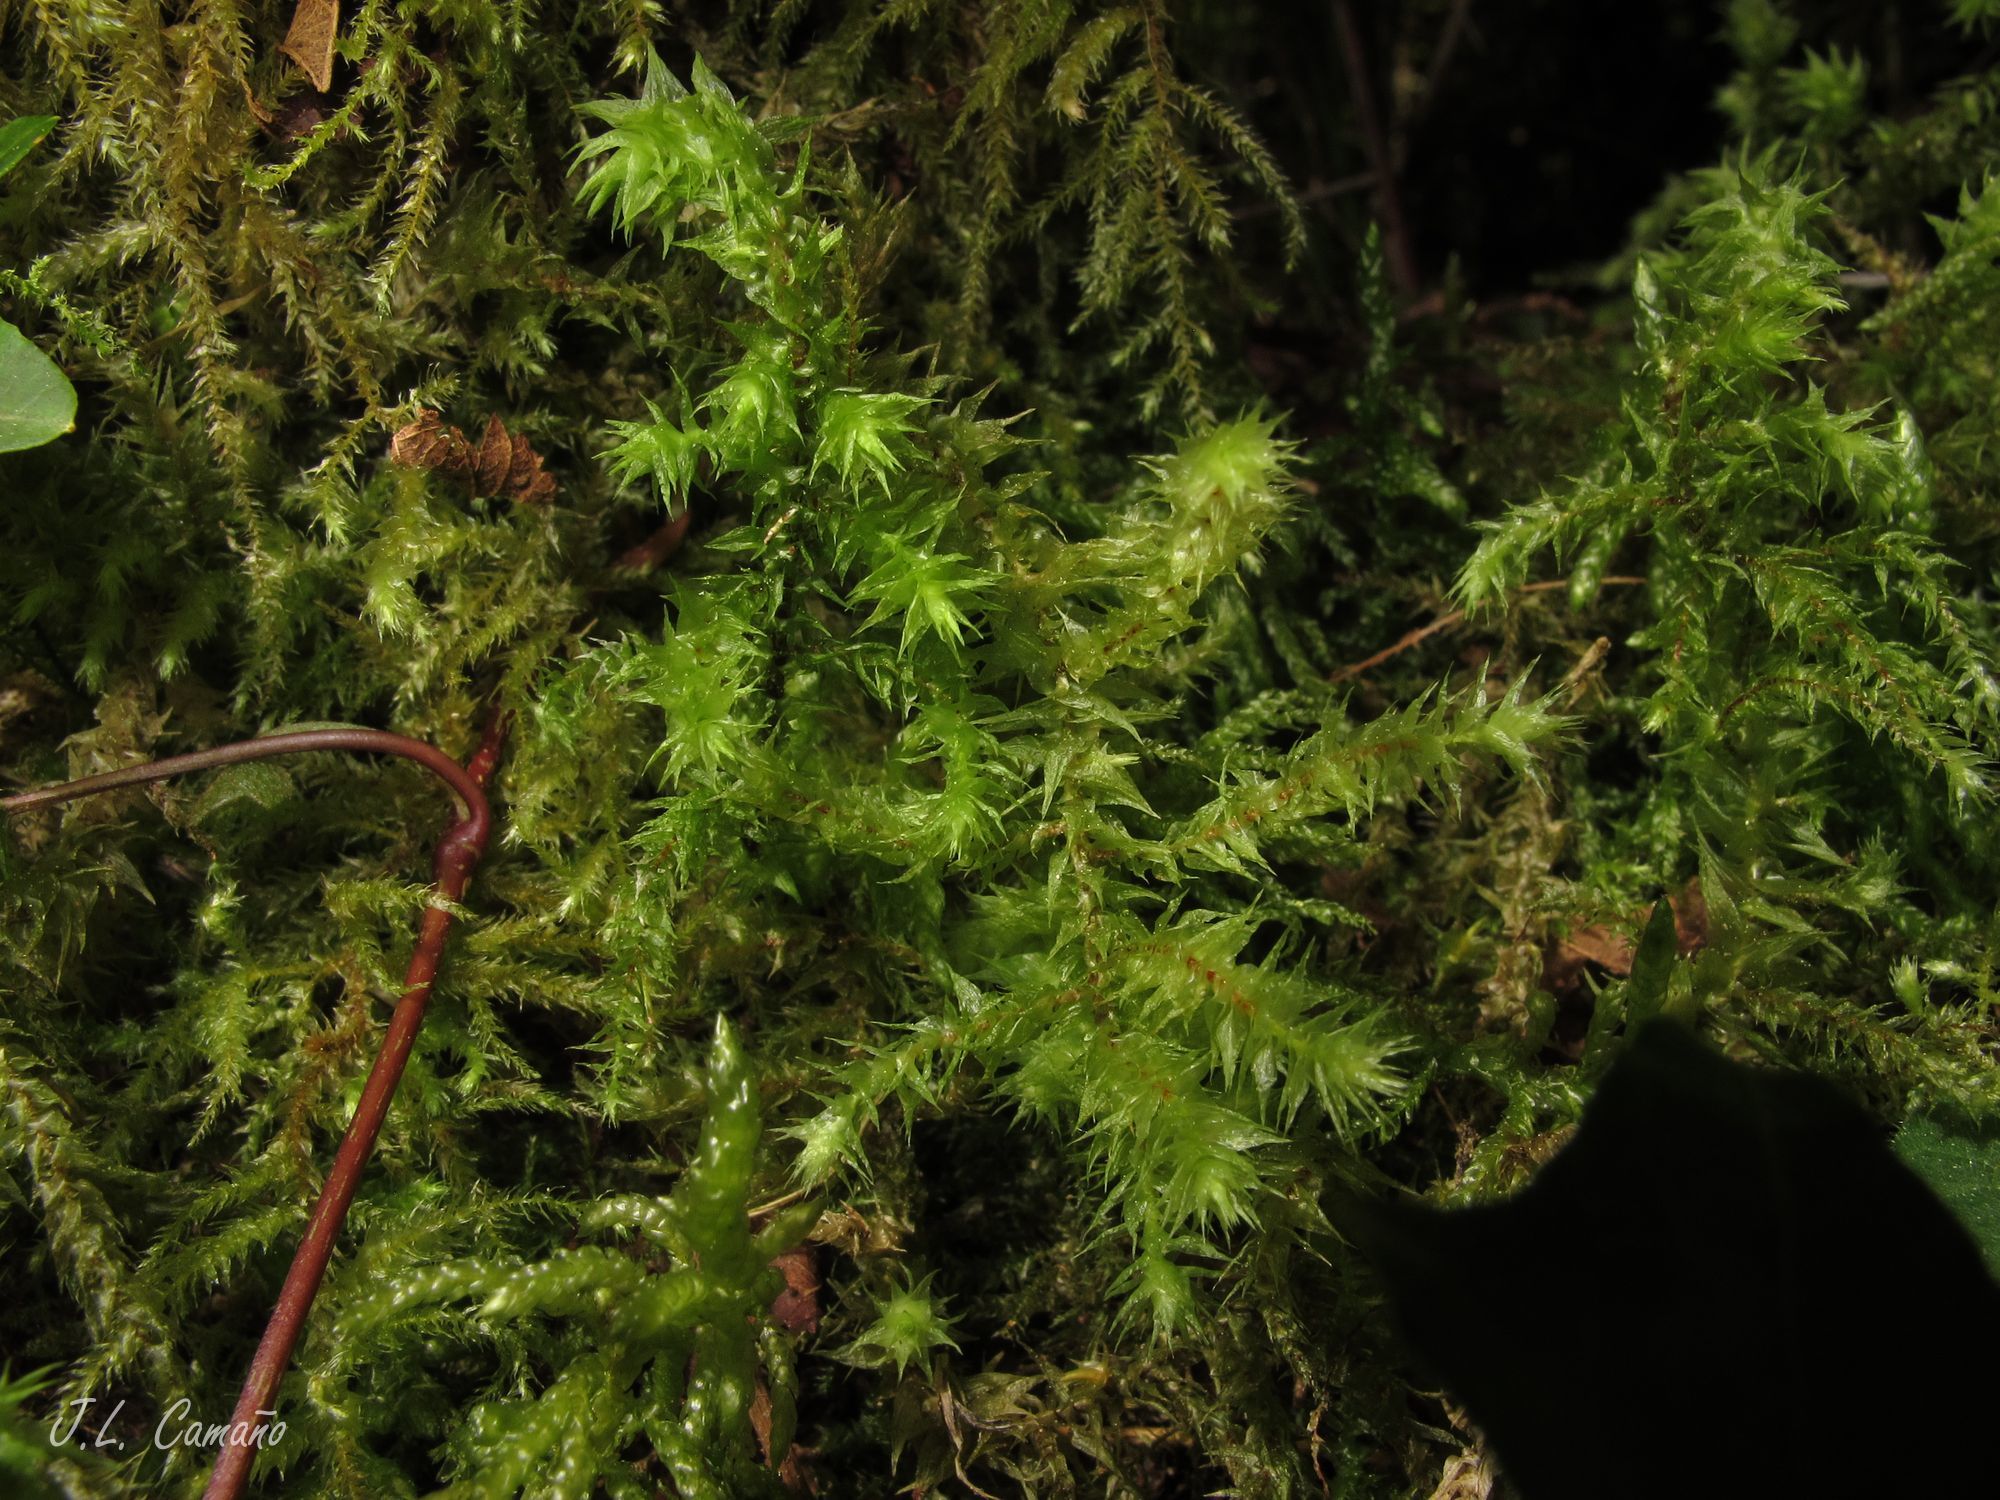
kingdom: Plantae
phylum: Bryophyta
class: Bryopsida
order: Hypnales
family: Hylocomiaceae
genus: Hylocomiadelphus
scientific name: Hylocomiadelphus triquetrus
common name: Rough goose neck moss
